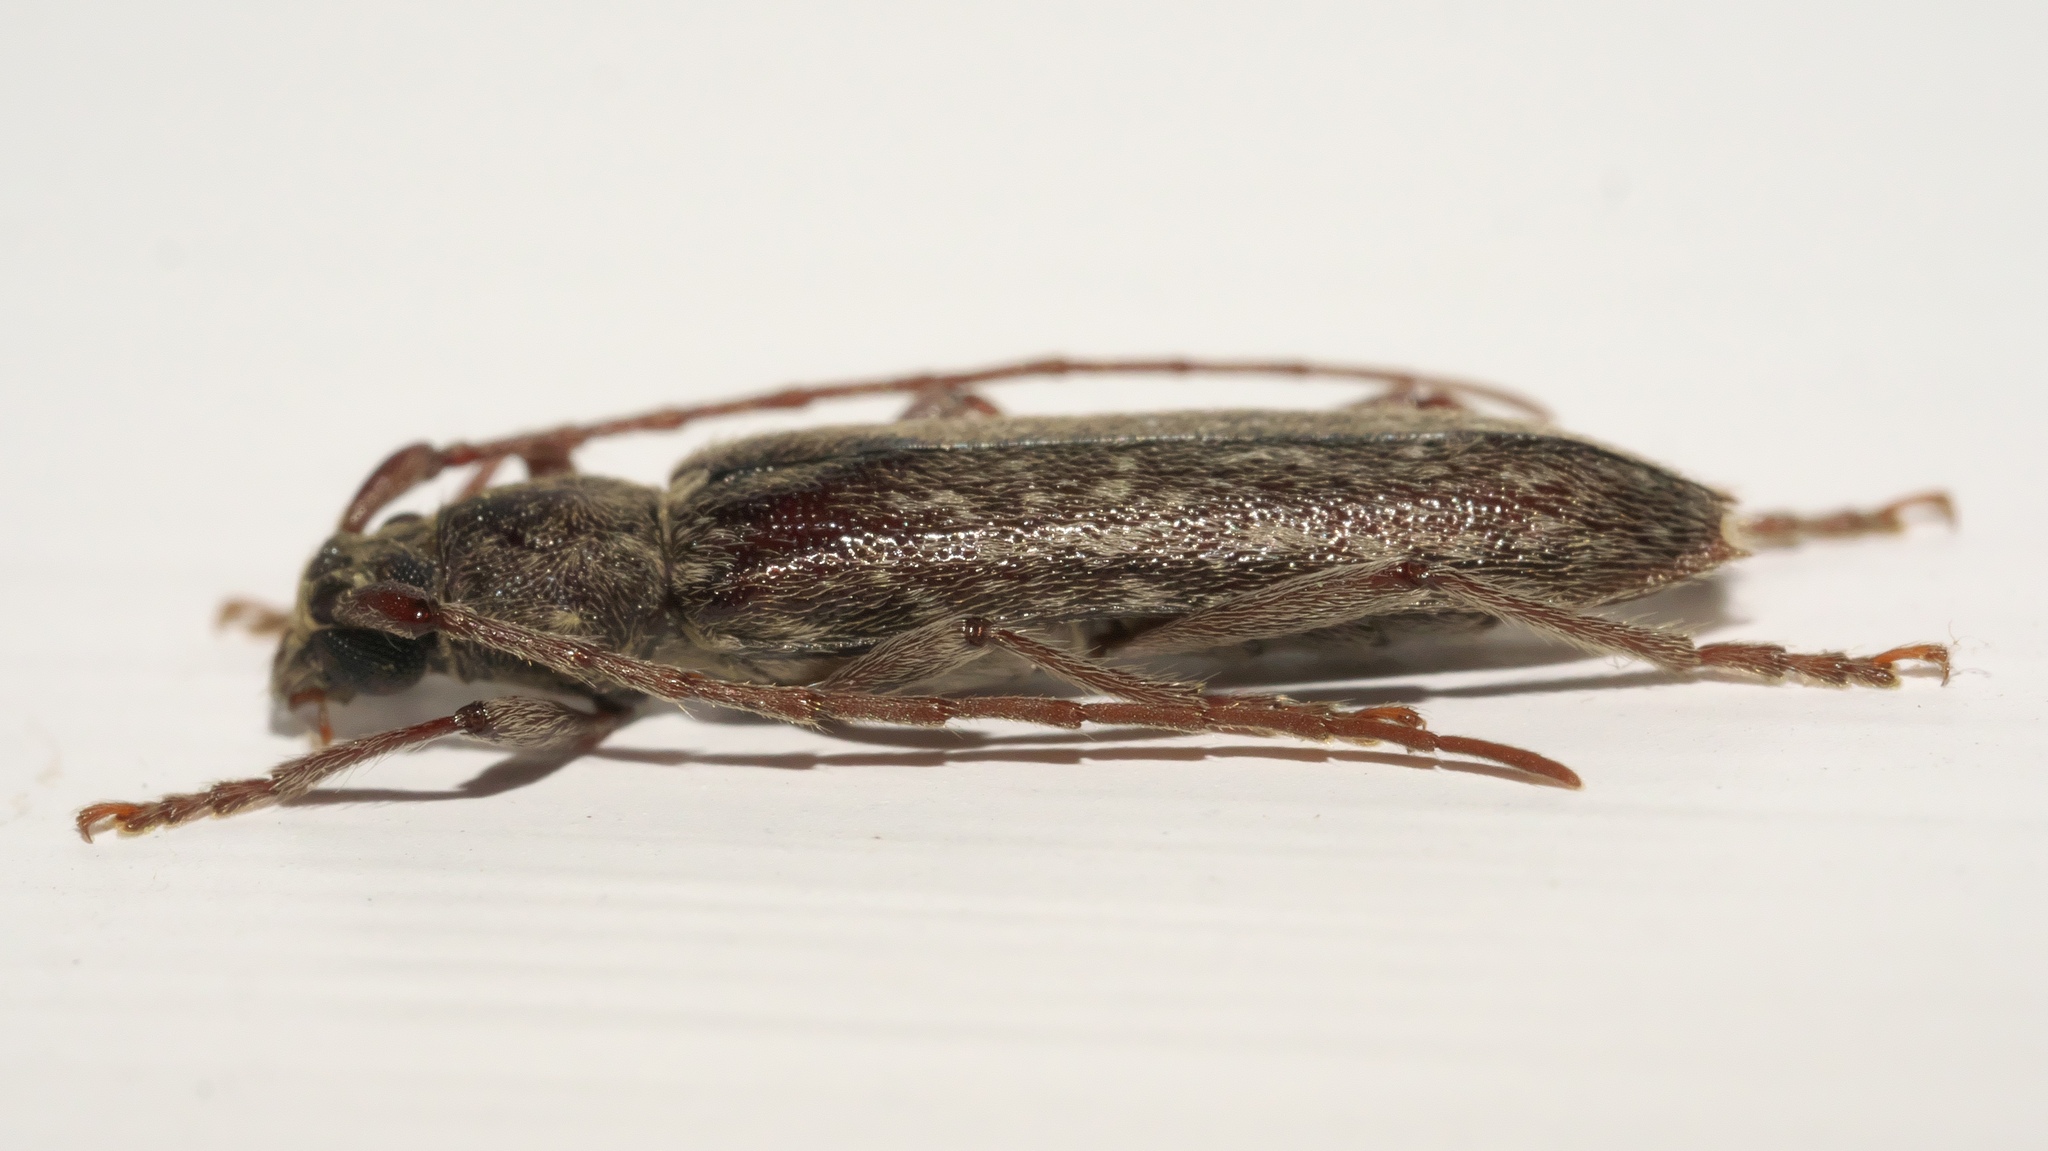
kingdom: Animalia
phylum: Arthropoda
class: Insecta
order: Coleoptera
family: Cerambycidae
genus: Anelaphus
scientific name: Anelaphus villosus
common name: Twig pruner
